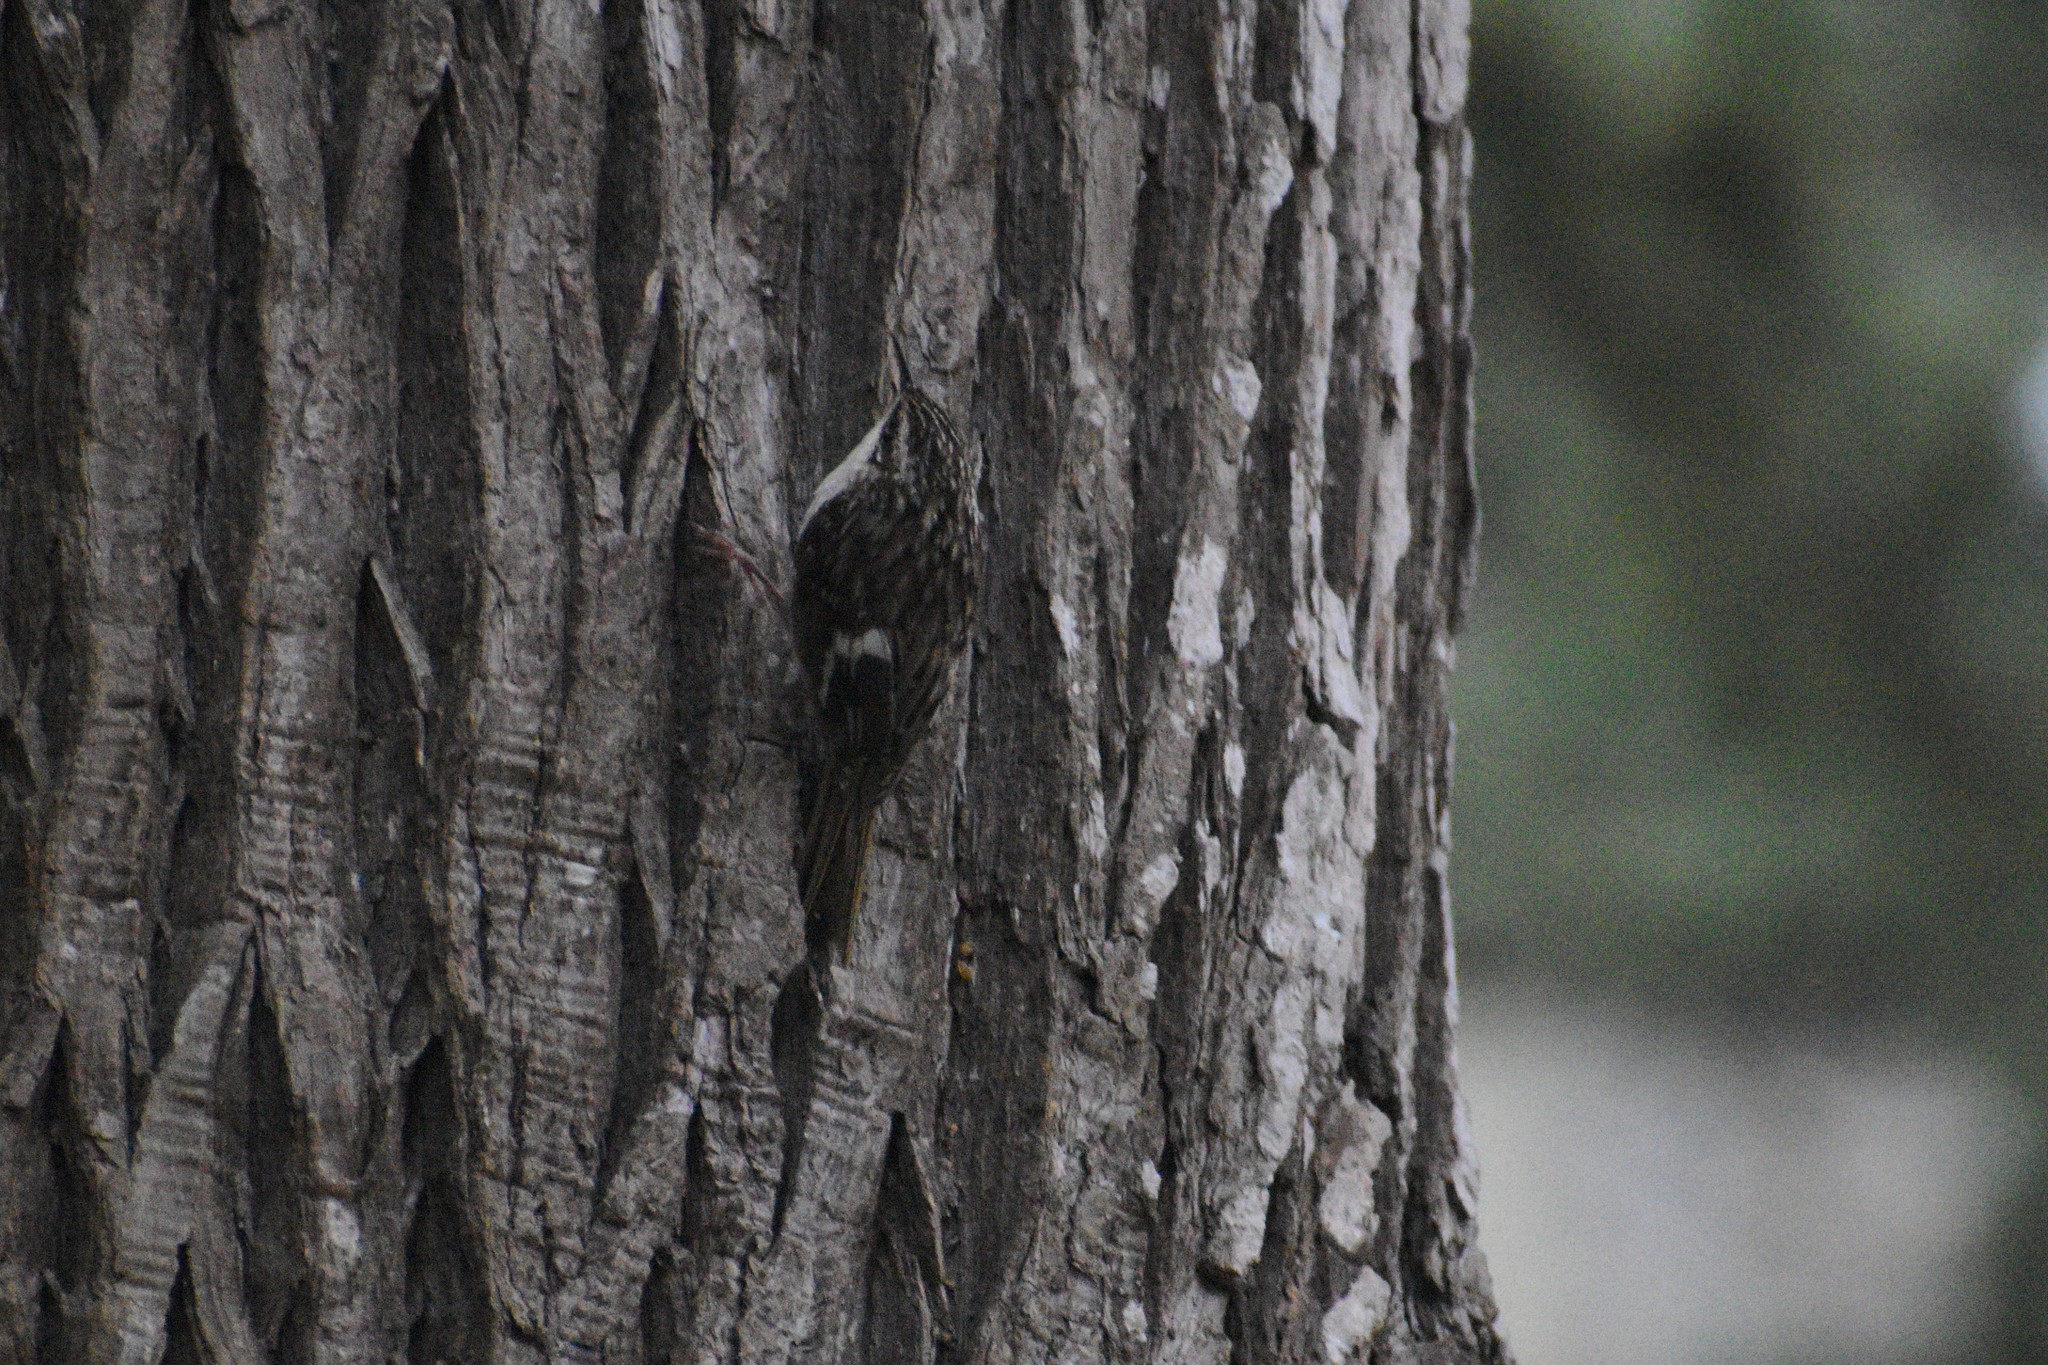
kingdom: Animalia
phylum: Chordata
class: Aves
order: Passeriformes
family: Certhiidae
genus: Certhia
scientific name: Certhia americana
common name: Brown creeper
